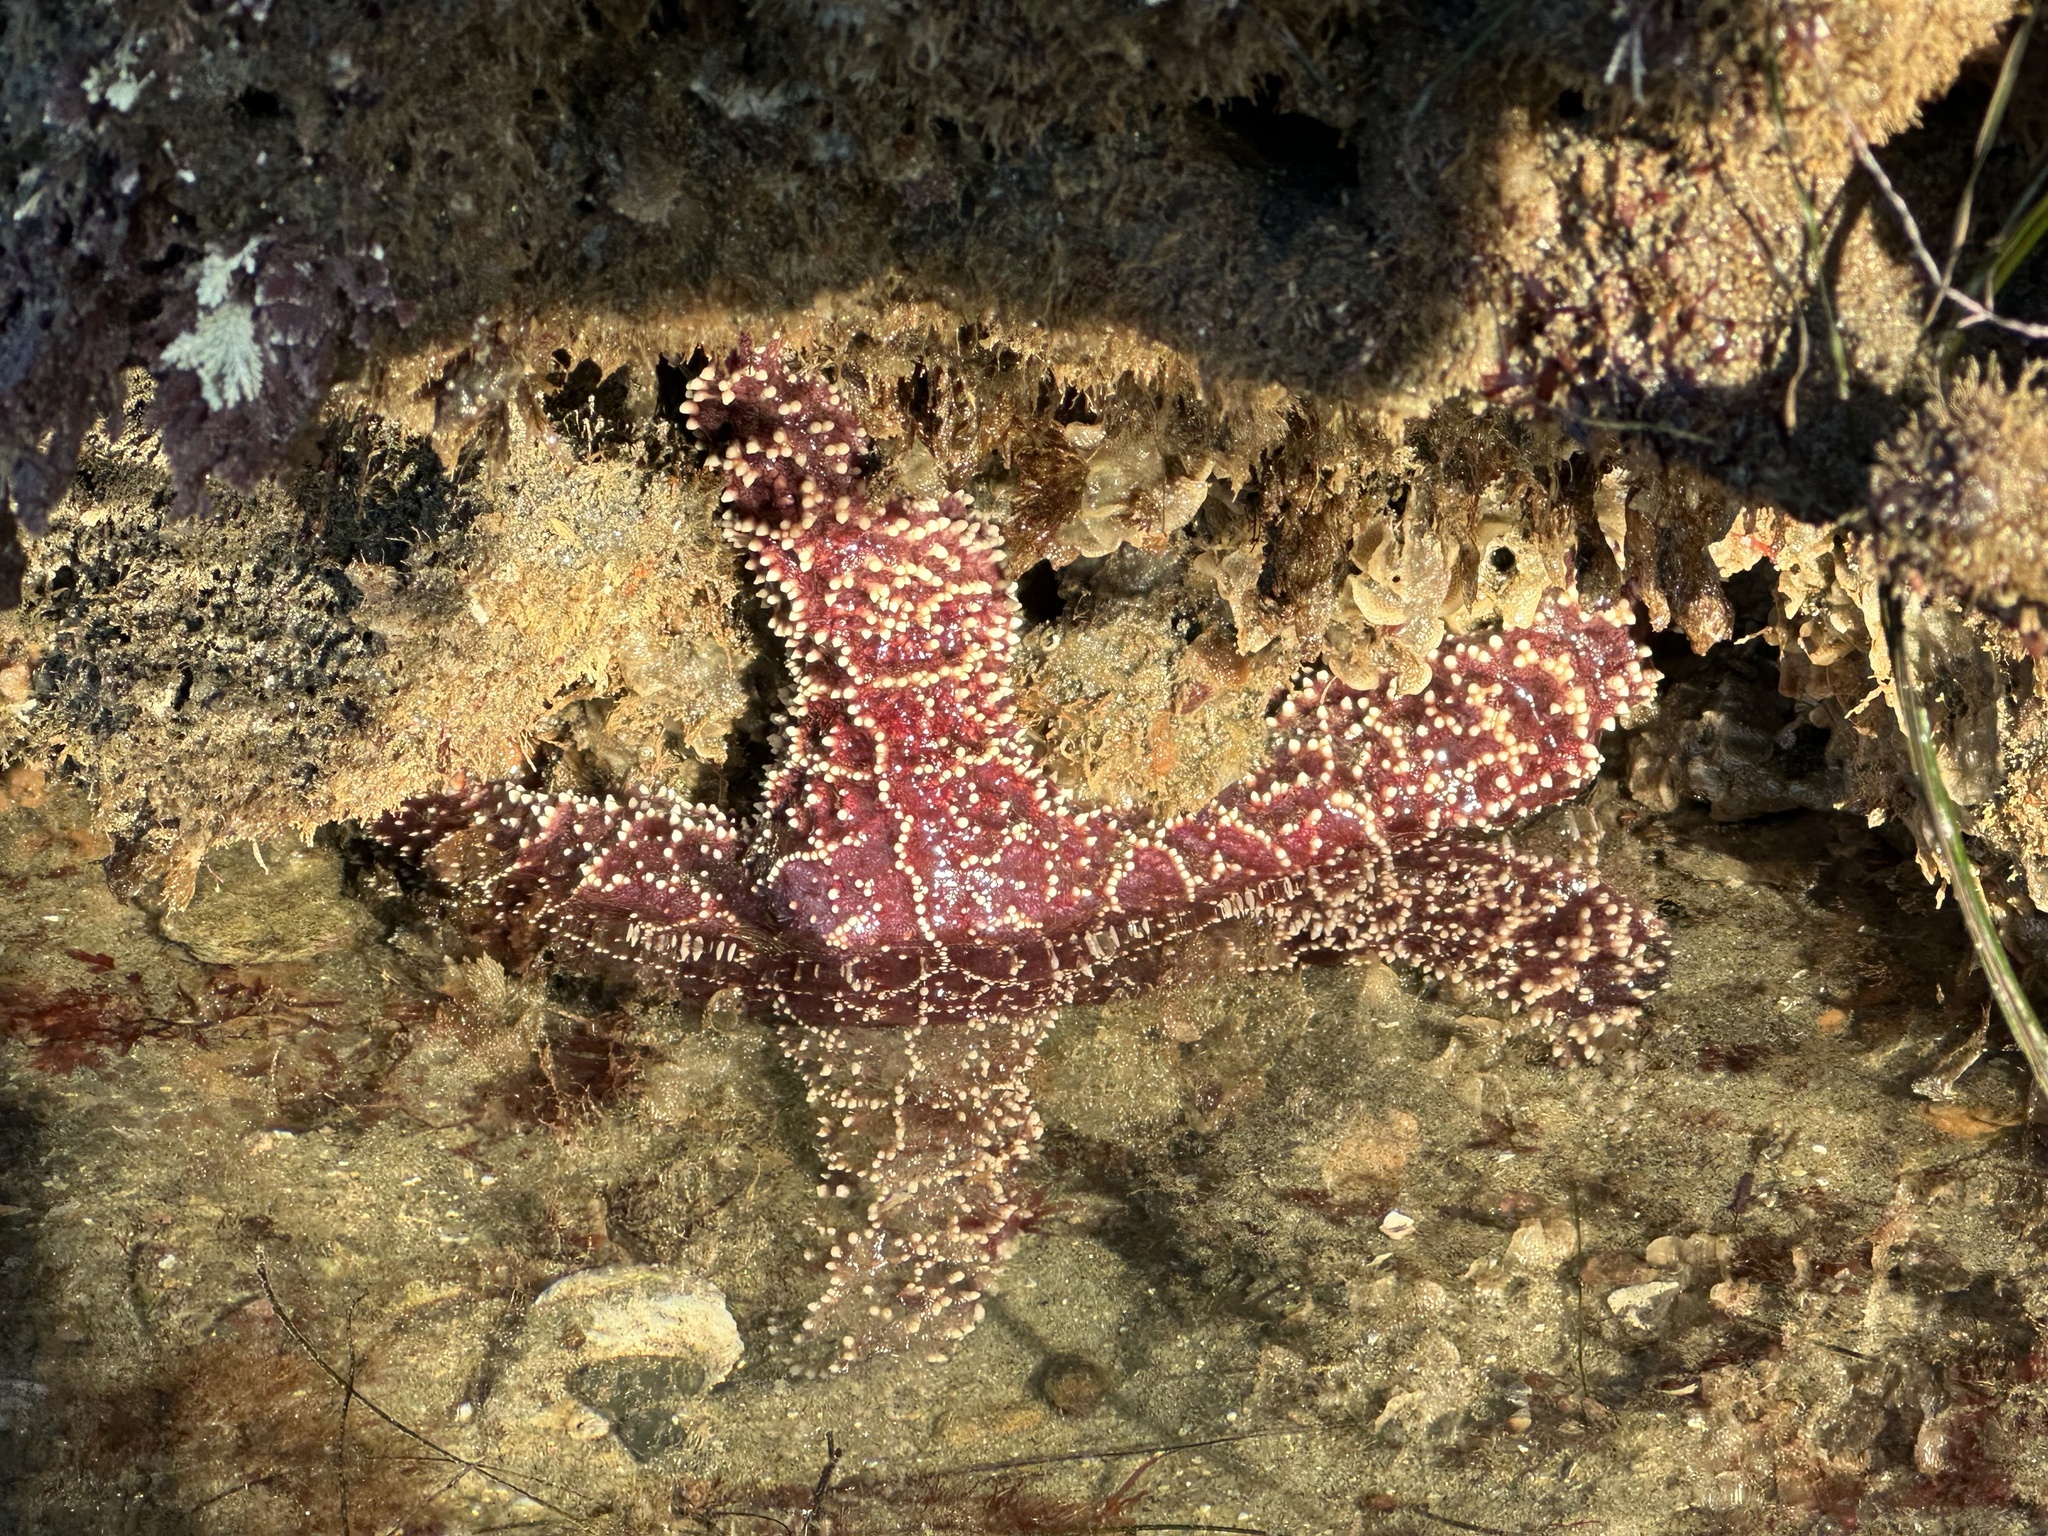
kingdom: Animalia
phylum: Echinodermata
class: Asteroidea
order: Forcipulatida
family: Asteriidae
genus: Pisaster
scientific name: Pisaster ochraceus
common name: Ochre stars
